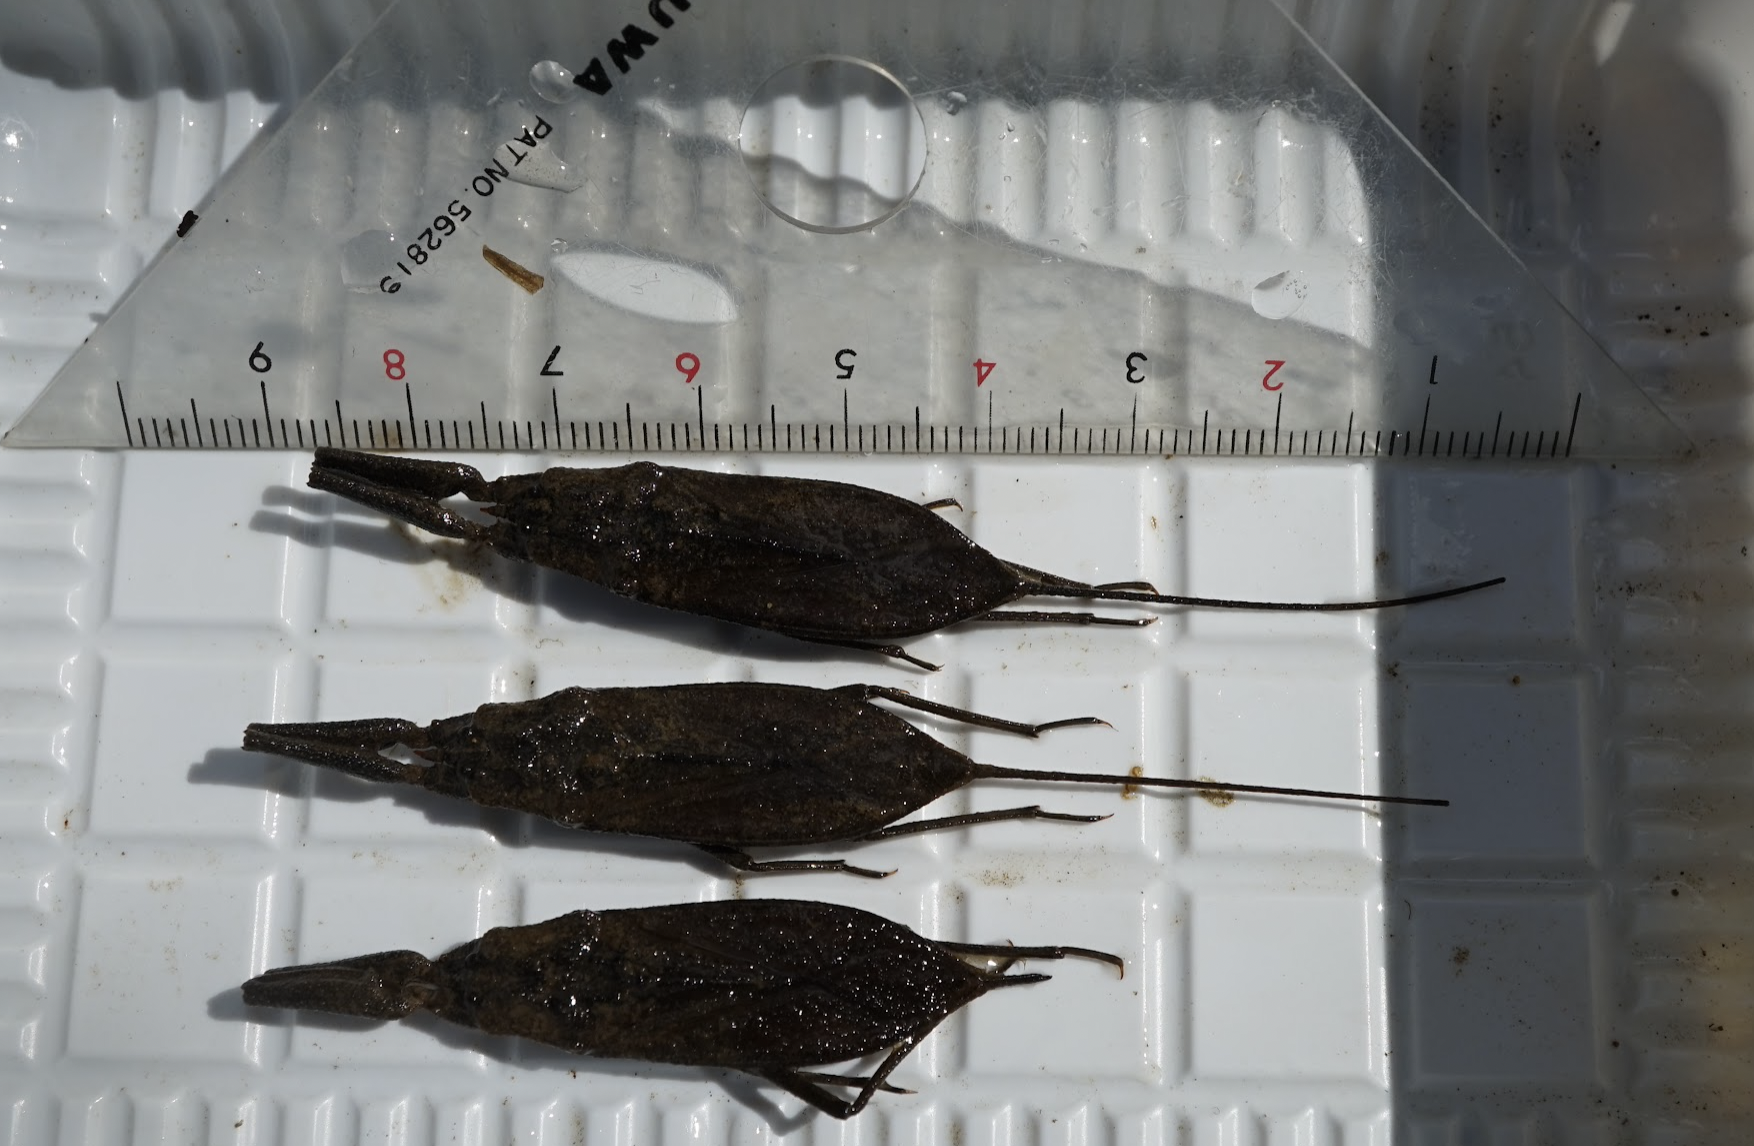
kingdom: Animalia
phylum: Arthropoda
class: Insecta
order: Hemiptera
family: Nepidae
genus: Laccotrephes
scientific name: Laccotrephes japonensis
